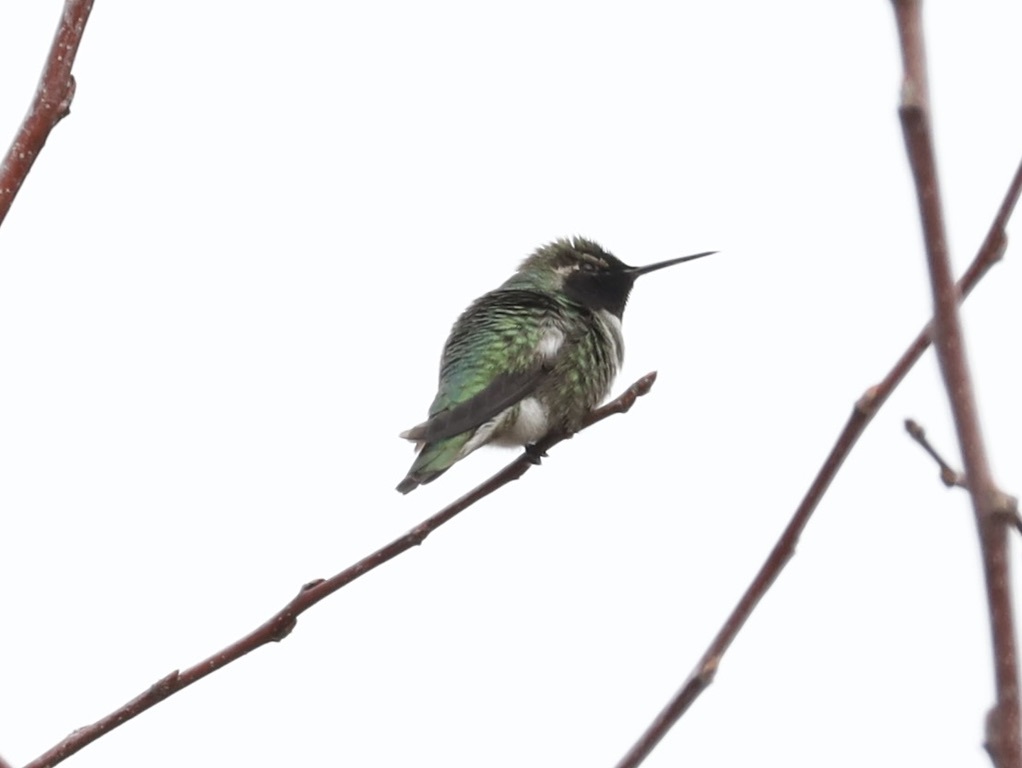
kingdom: Animalia
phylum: Chordata
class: Aves
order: Apodiformes
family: Trochilidae
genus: Calypte
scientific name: Calypte anna
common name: Anna's hummingbird
